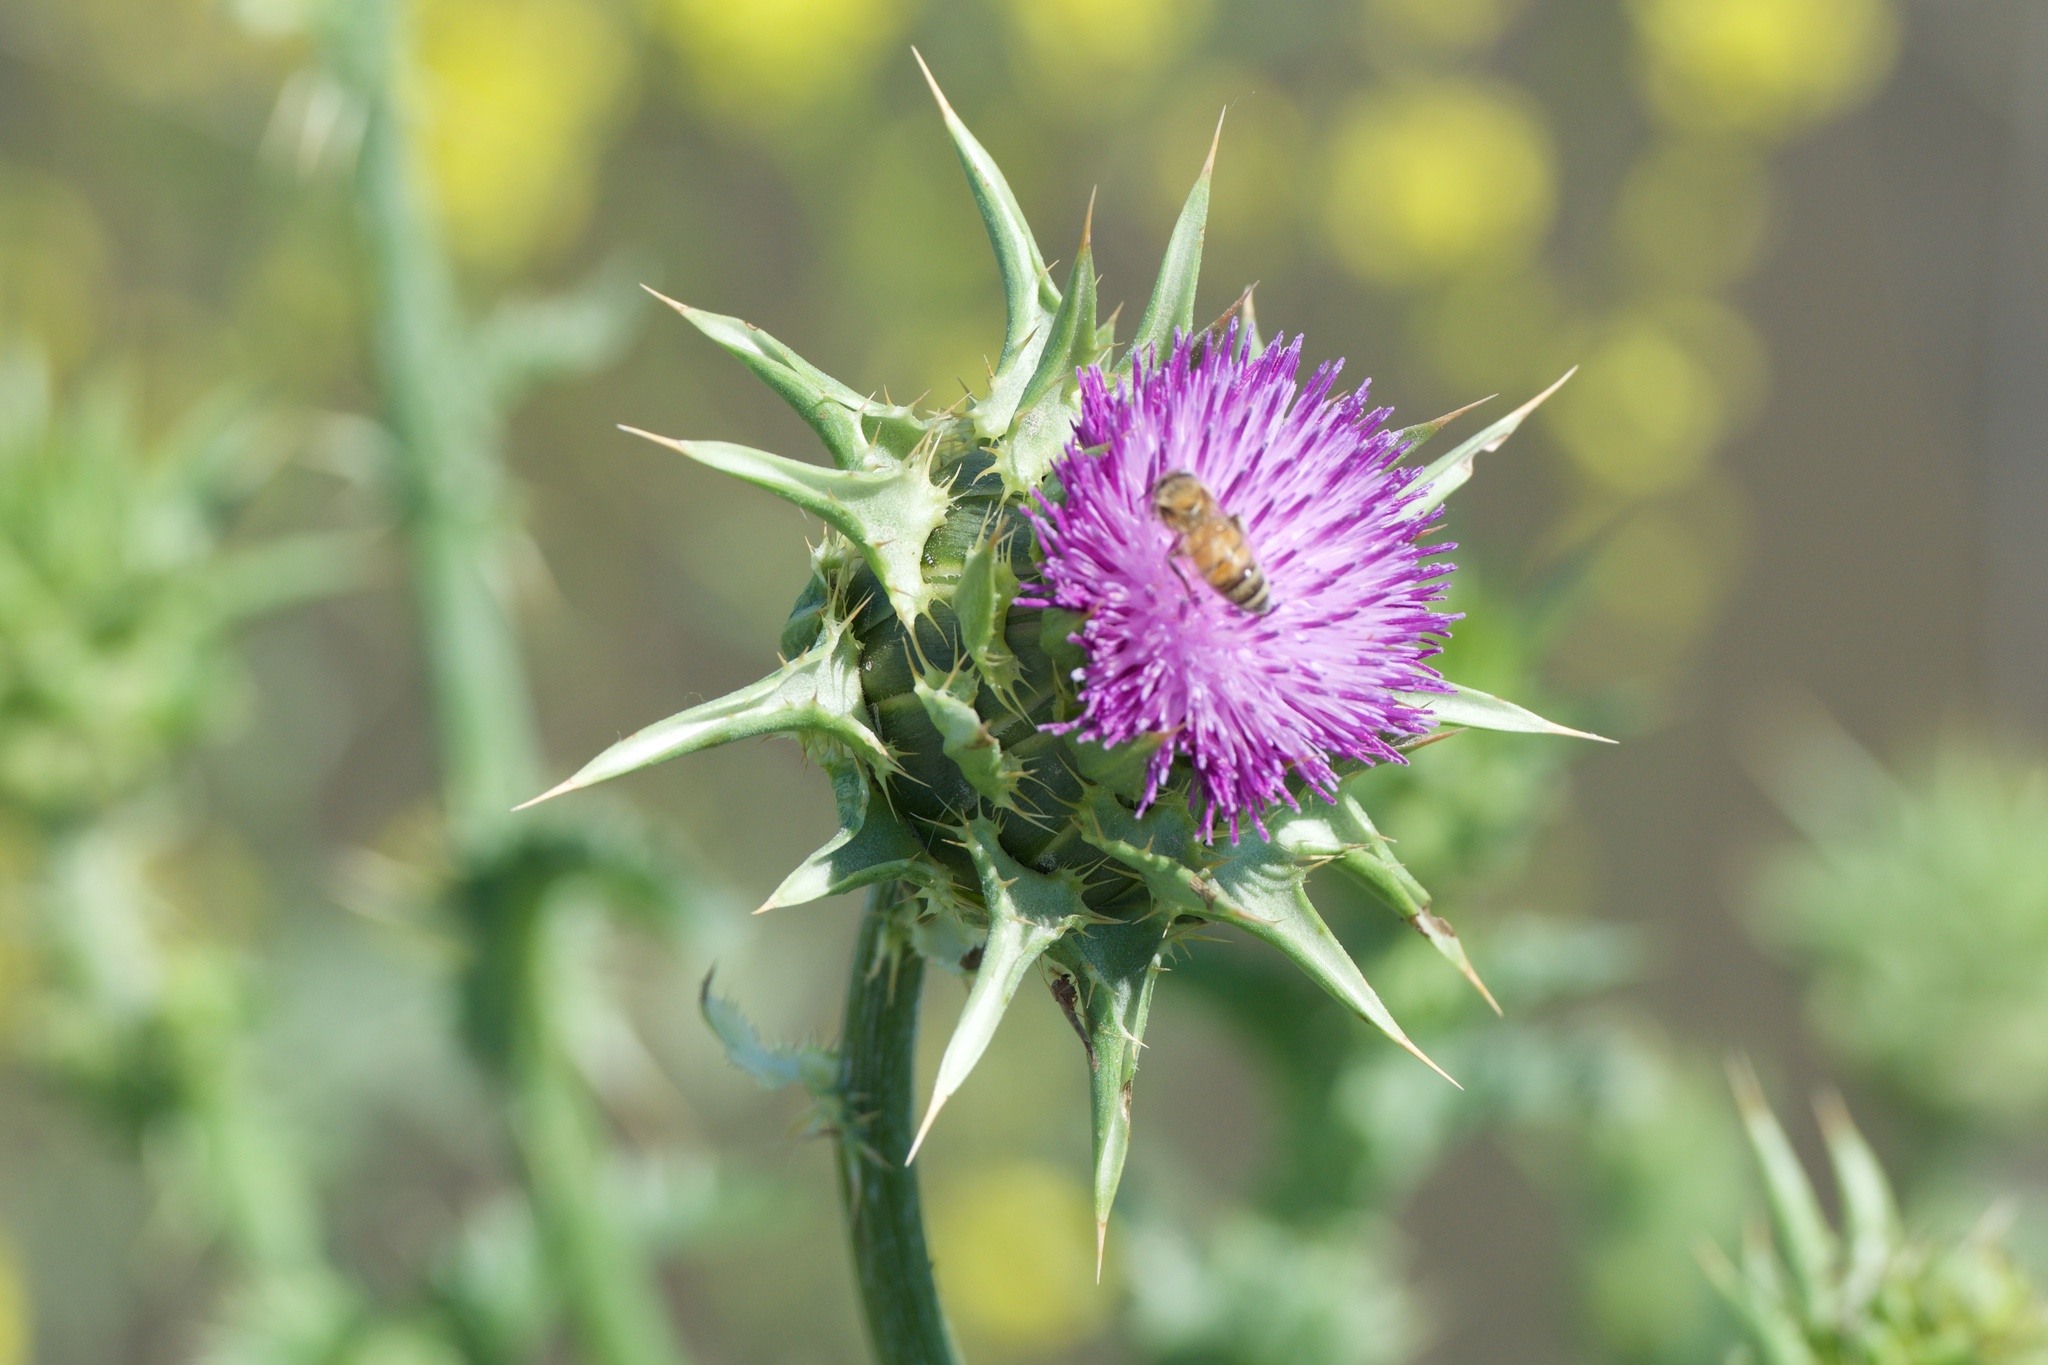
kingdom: Plantae
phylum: Tracheophyta
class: Magnoliopsida
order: Asterales
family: Asteraceae
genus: Silybum
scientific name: Silybum marianum
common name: Milk thistle
